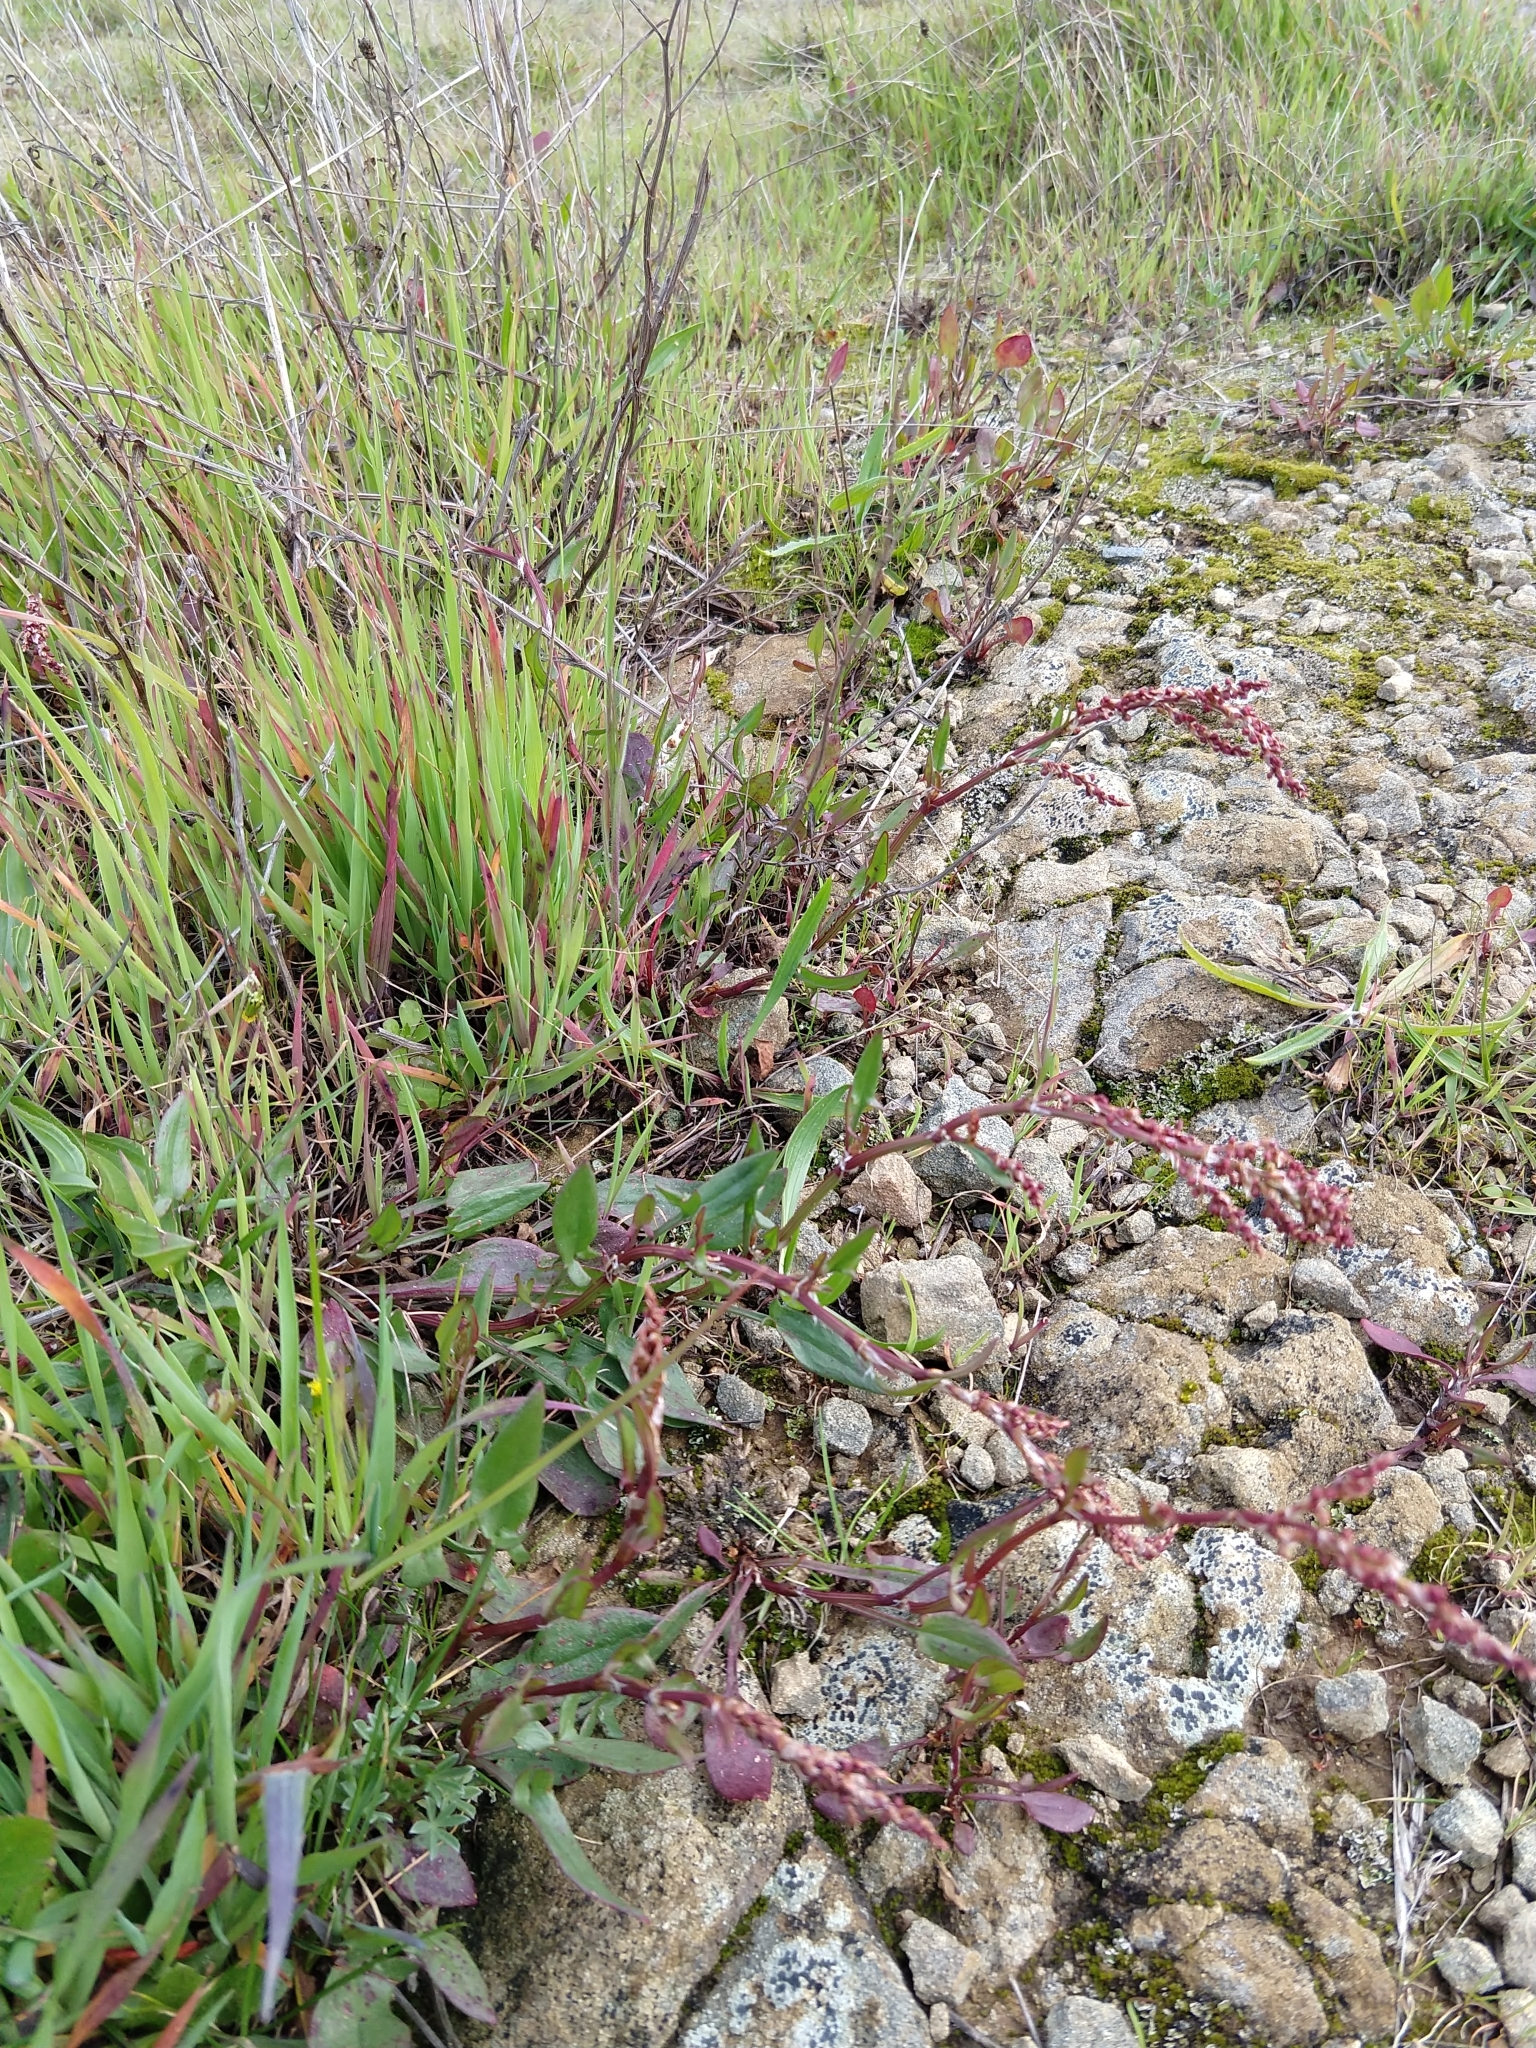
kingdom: Plantae
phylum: Tracheophyta
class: Magnoliopsida
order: Caryophyllales
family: Polygonaceae
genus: Rumex
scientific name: Rumex acetosella
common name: Common sheep sorrel
